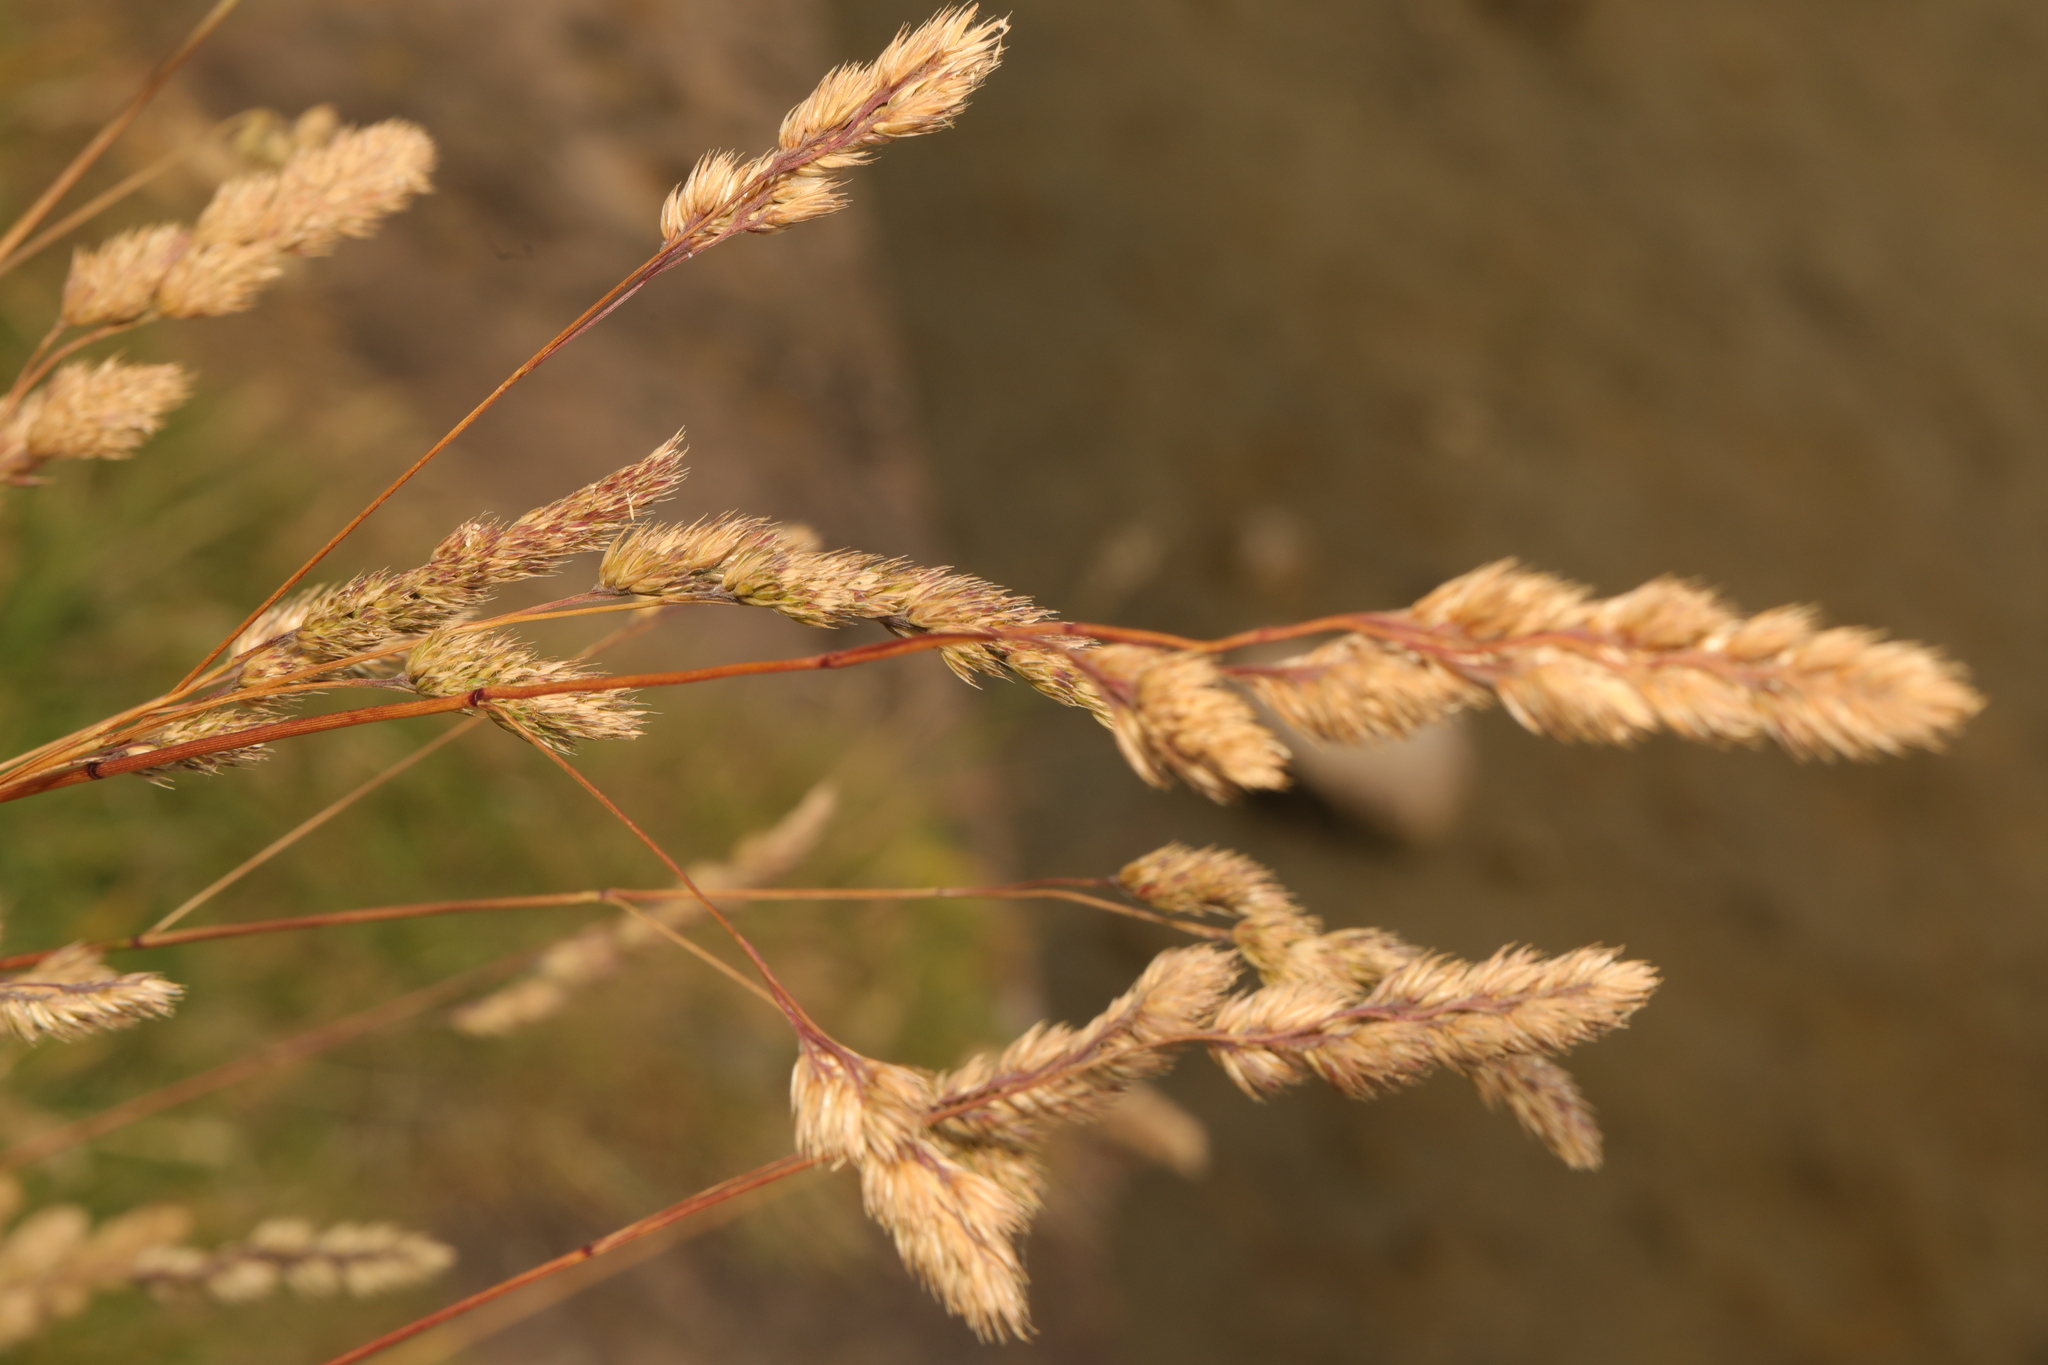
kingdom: Plantae
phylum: Tracheophyta
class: Liliopsida
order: Poales
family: Poaceae
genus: Dactylis
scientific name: Dactylis glomerata
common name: Orchardgrass
